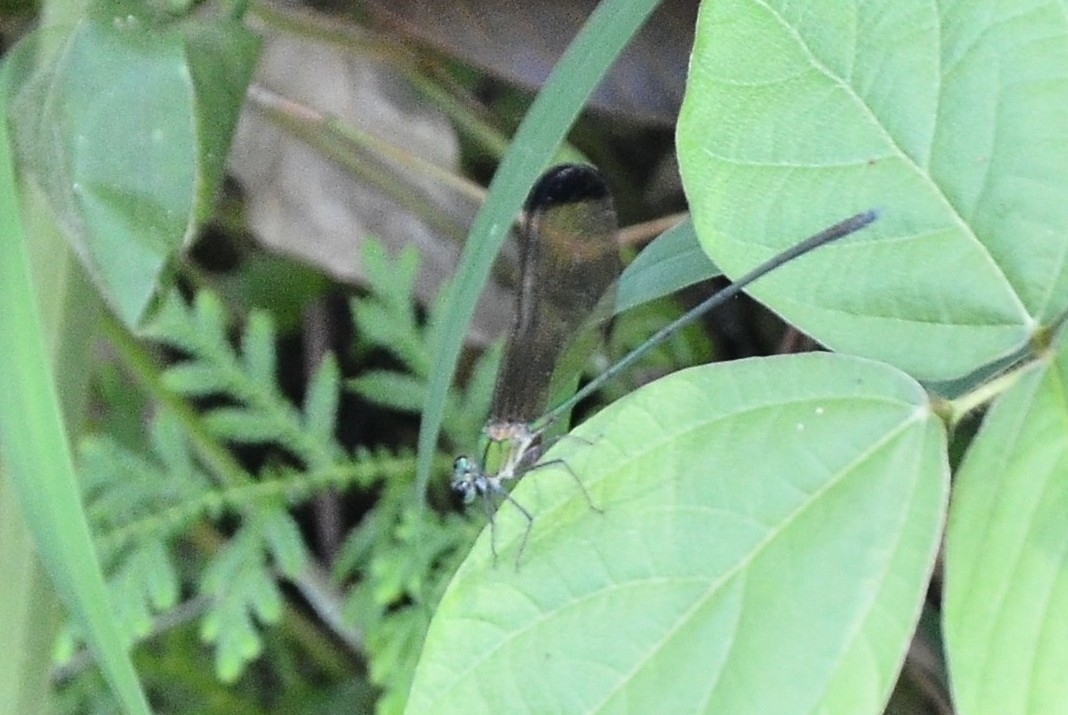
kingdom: Animalia
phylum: Arthropoda
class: Insecta
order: Odonata
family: Calopterygidae
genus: Vestalis
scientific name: Vestalis apicalis
